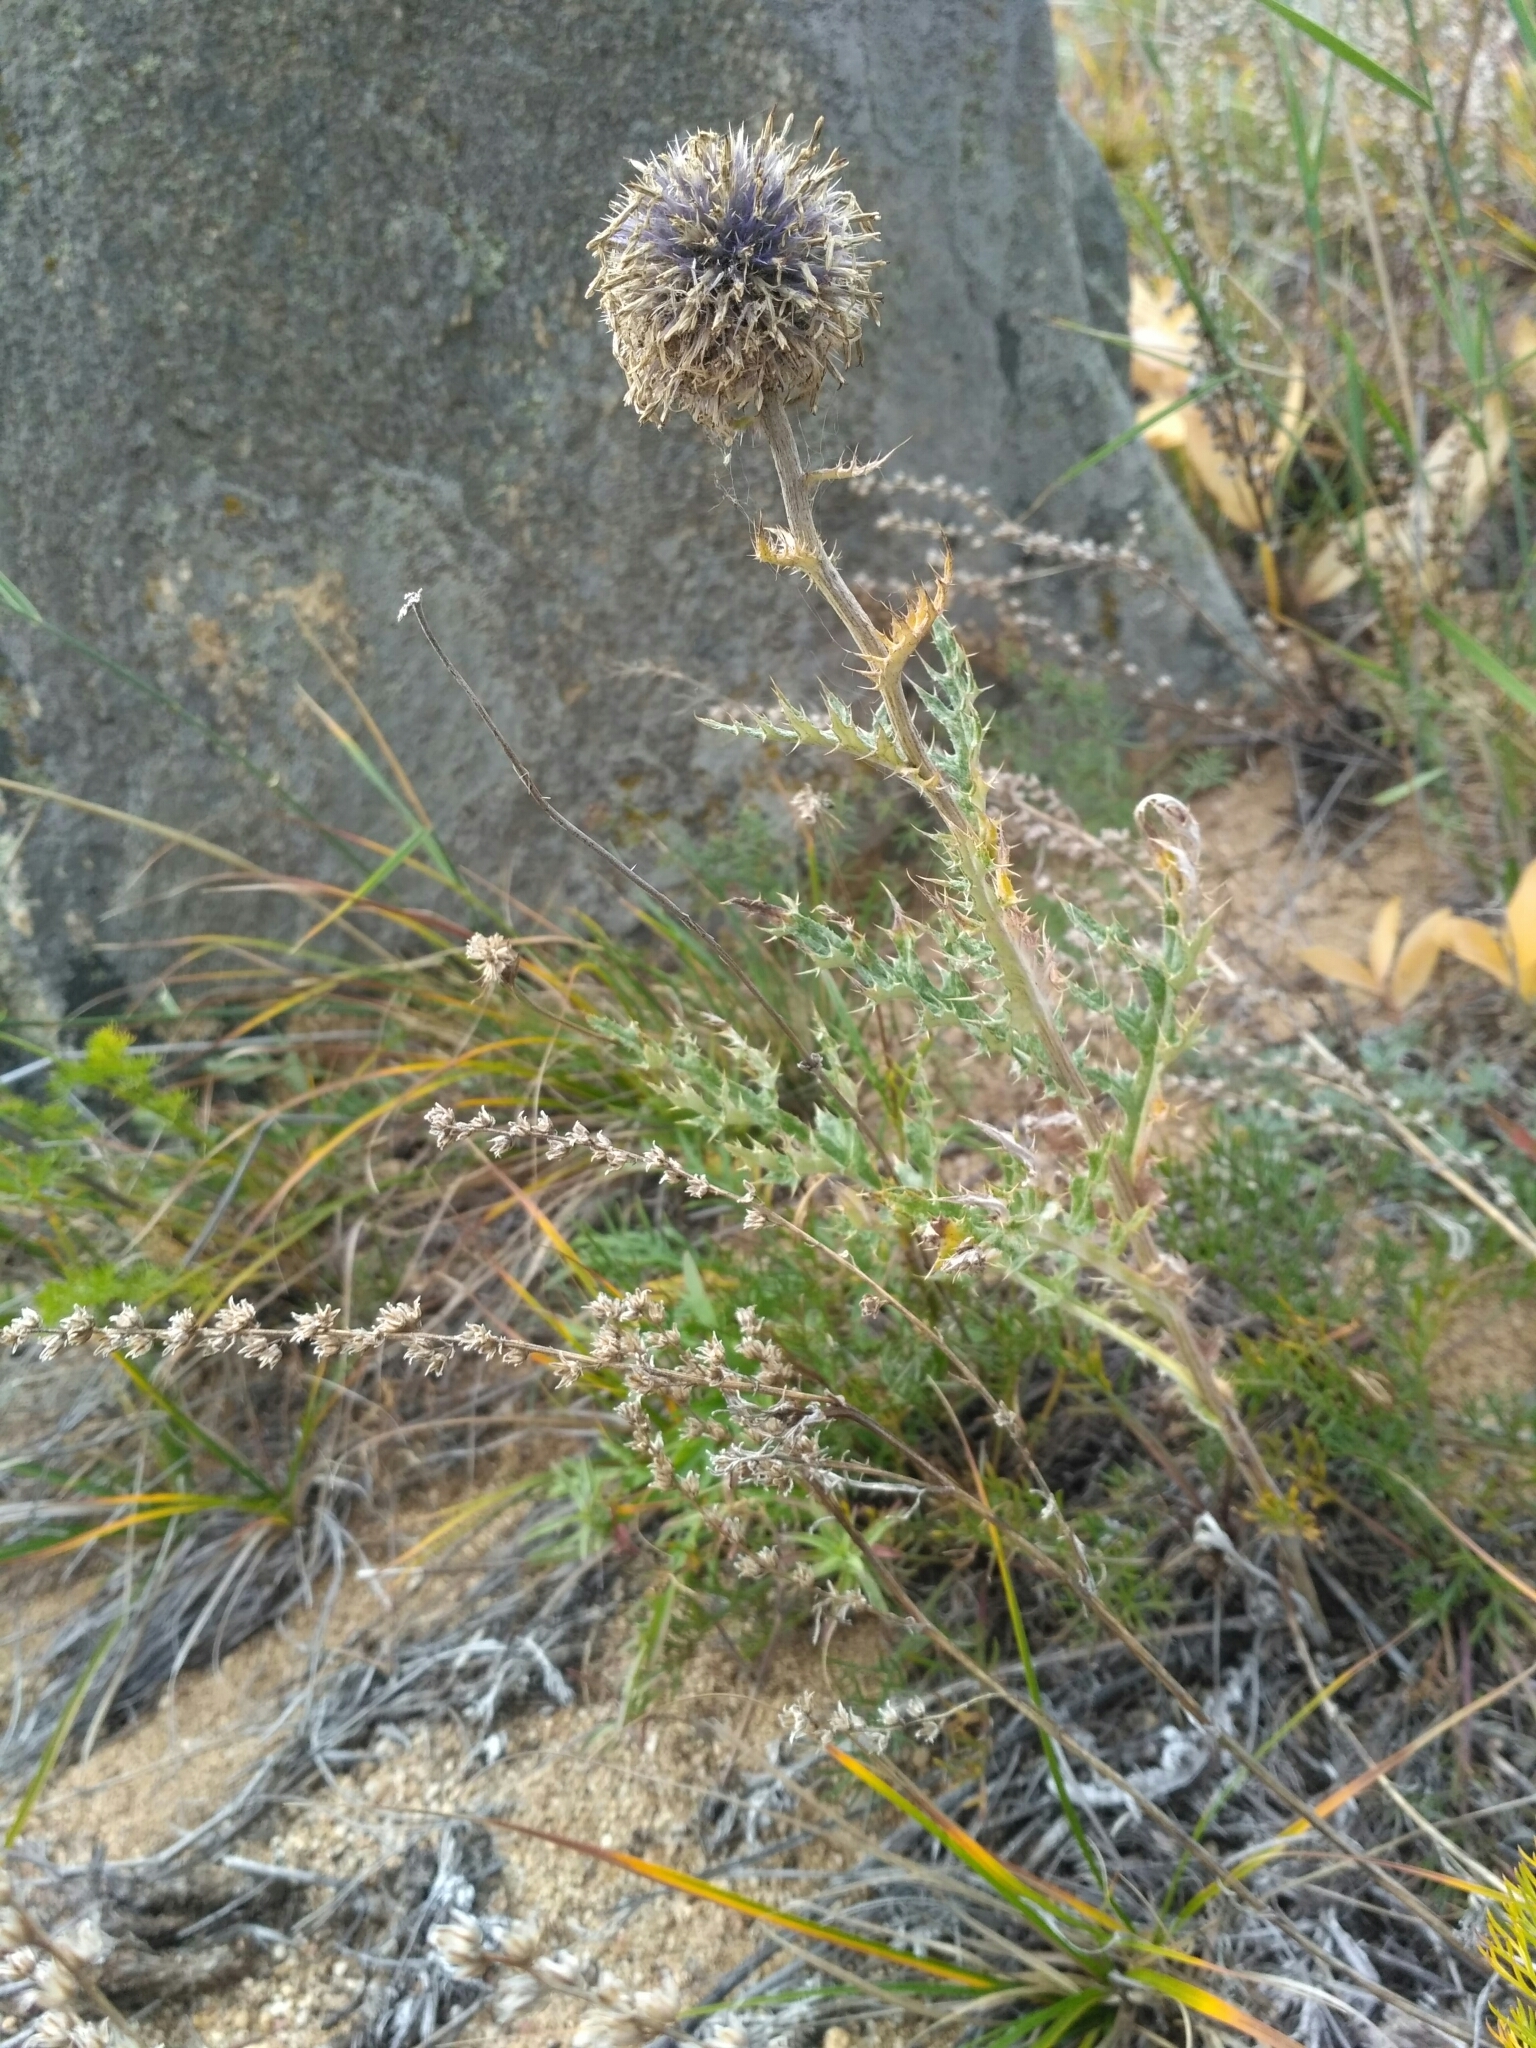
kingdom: Plantae
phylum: Tracheophyta
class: Magnoliopsida
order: Asterales
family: Asteraceae
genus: Echinops
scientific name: Echinops davuricus
